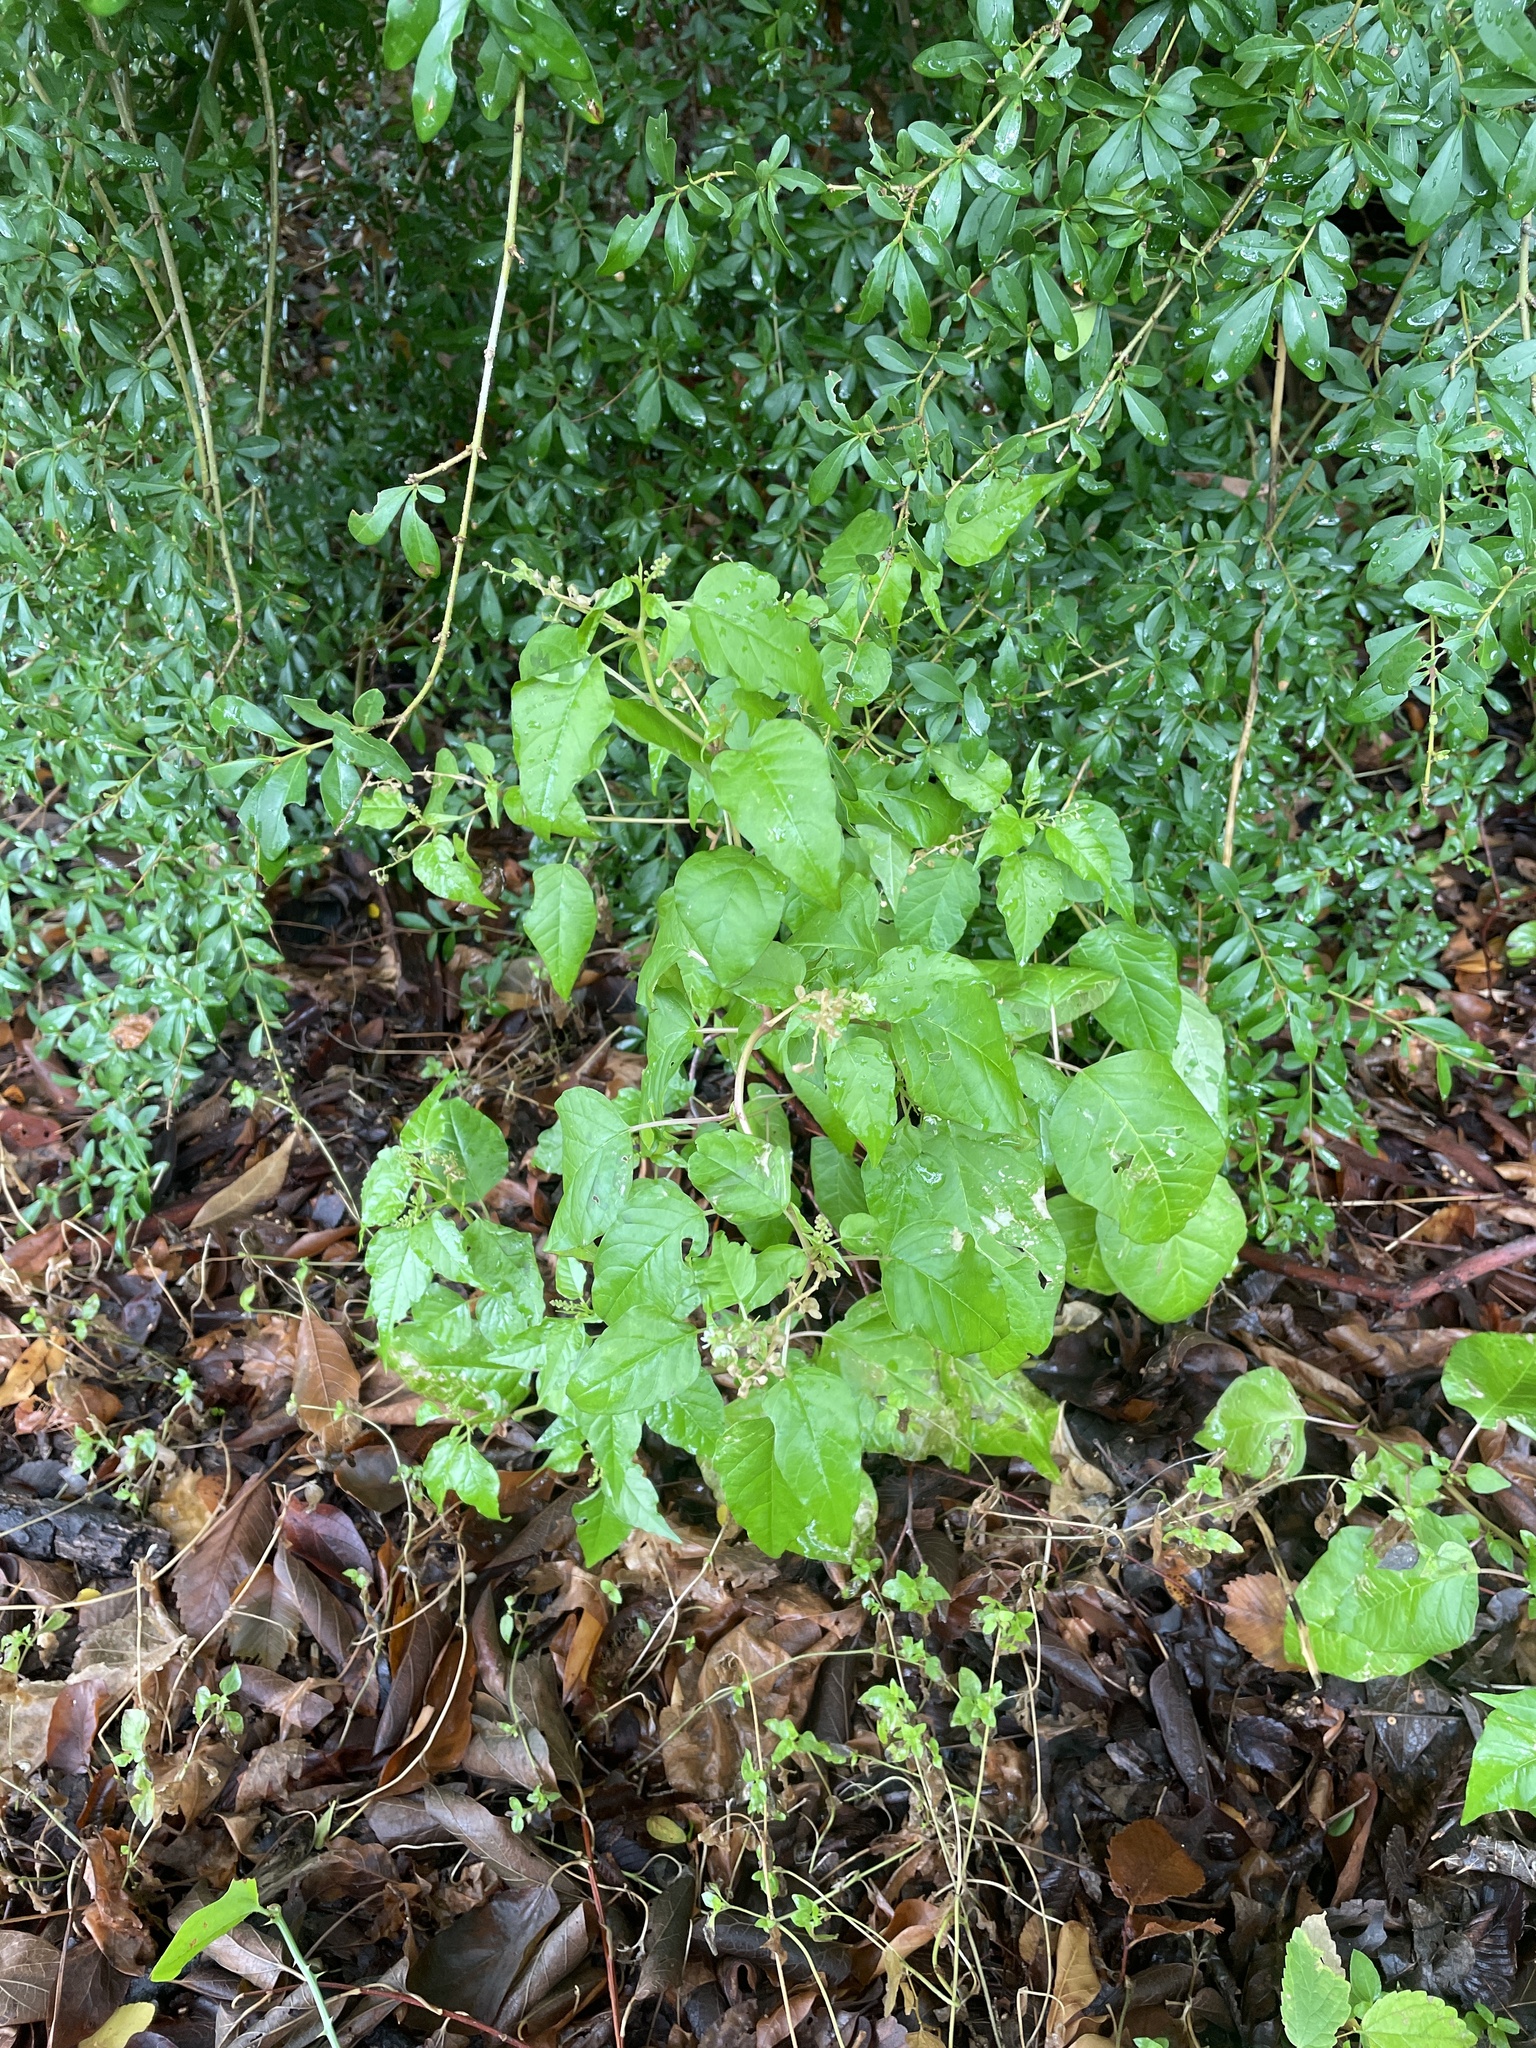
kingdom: Plantae
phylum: Tracheophyta
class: Magnoliopsida
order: Caryophyllales
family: Phytolaccaceae
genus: Rivina
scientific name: Rivina humilis
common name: Rougeplant
